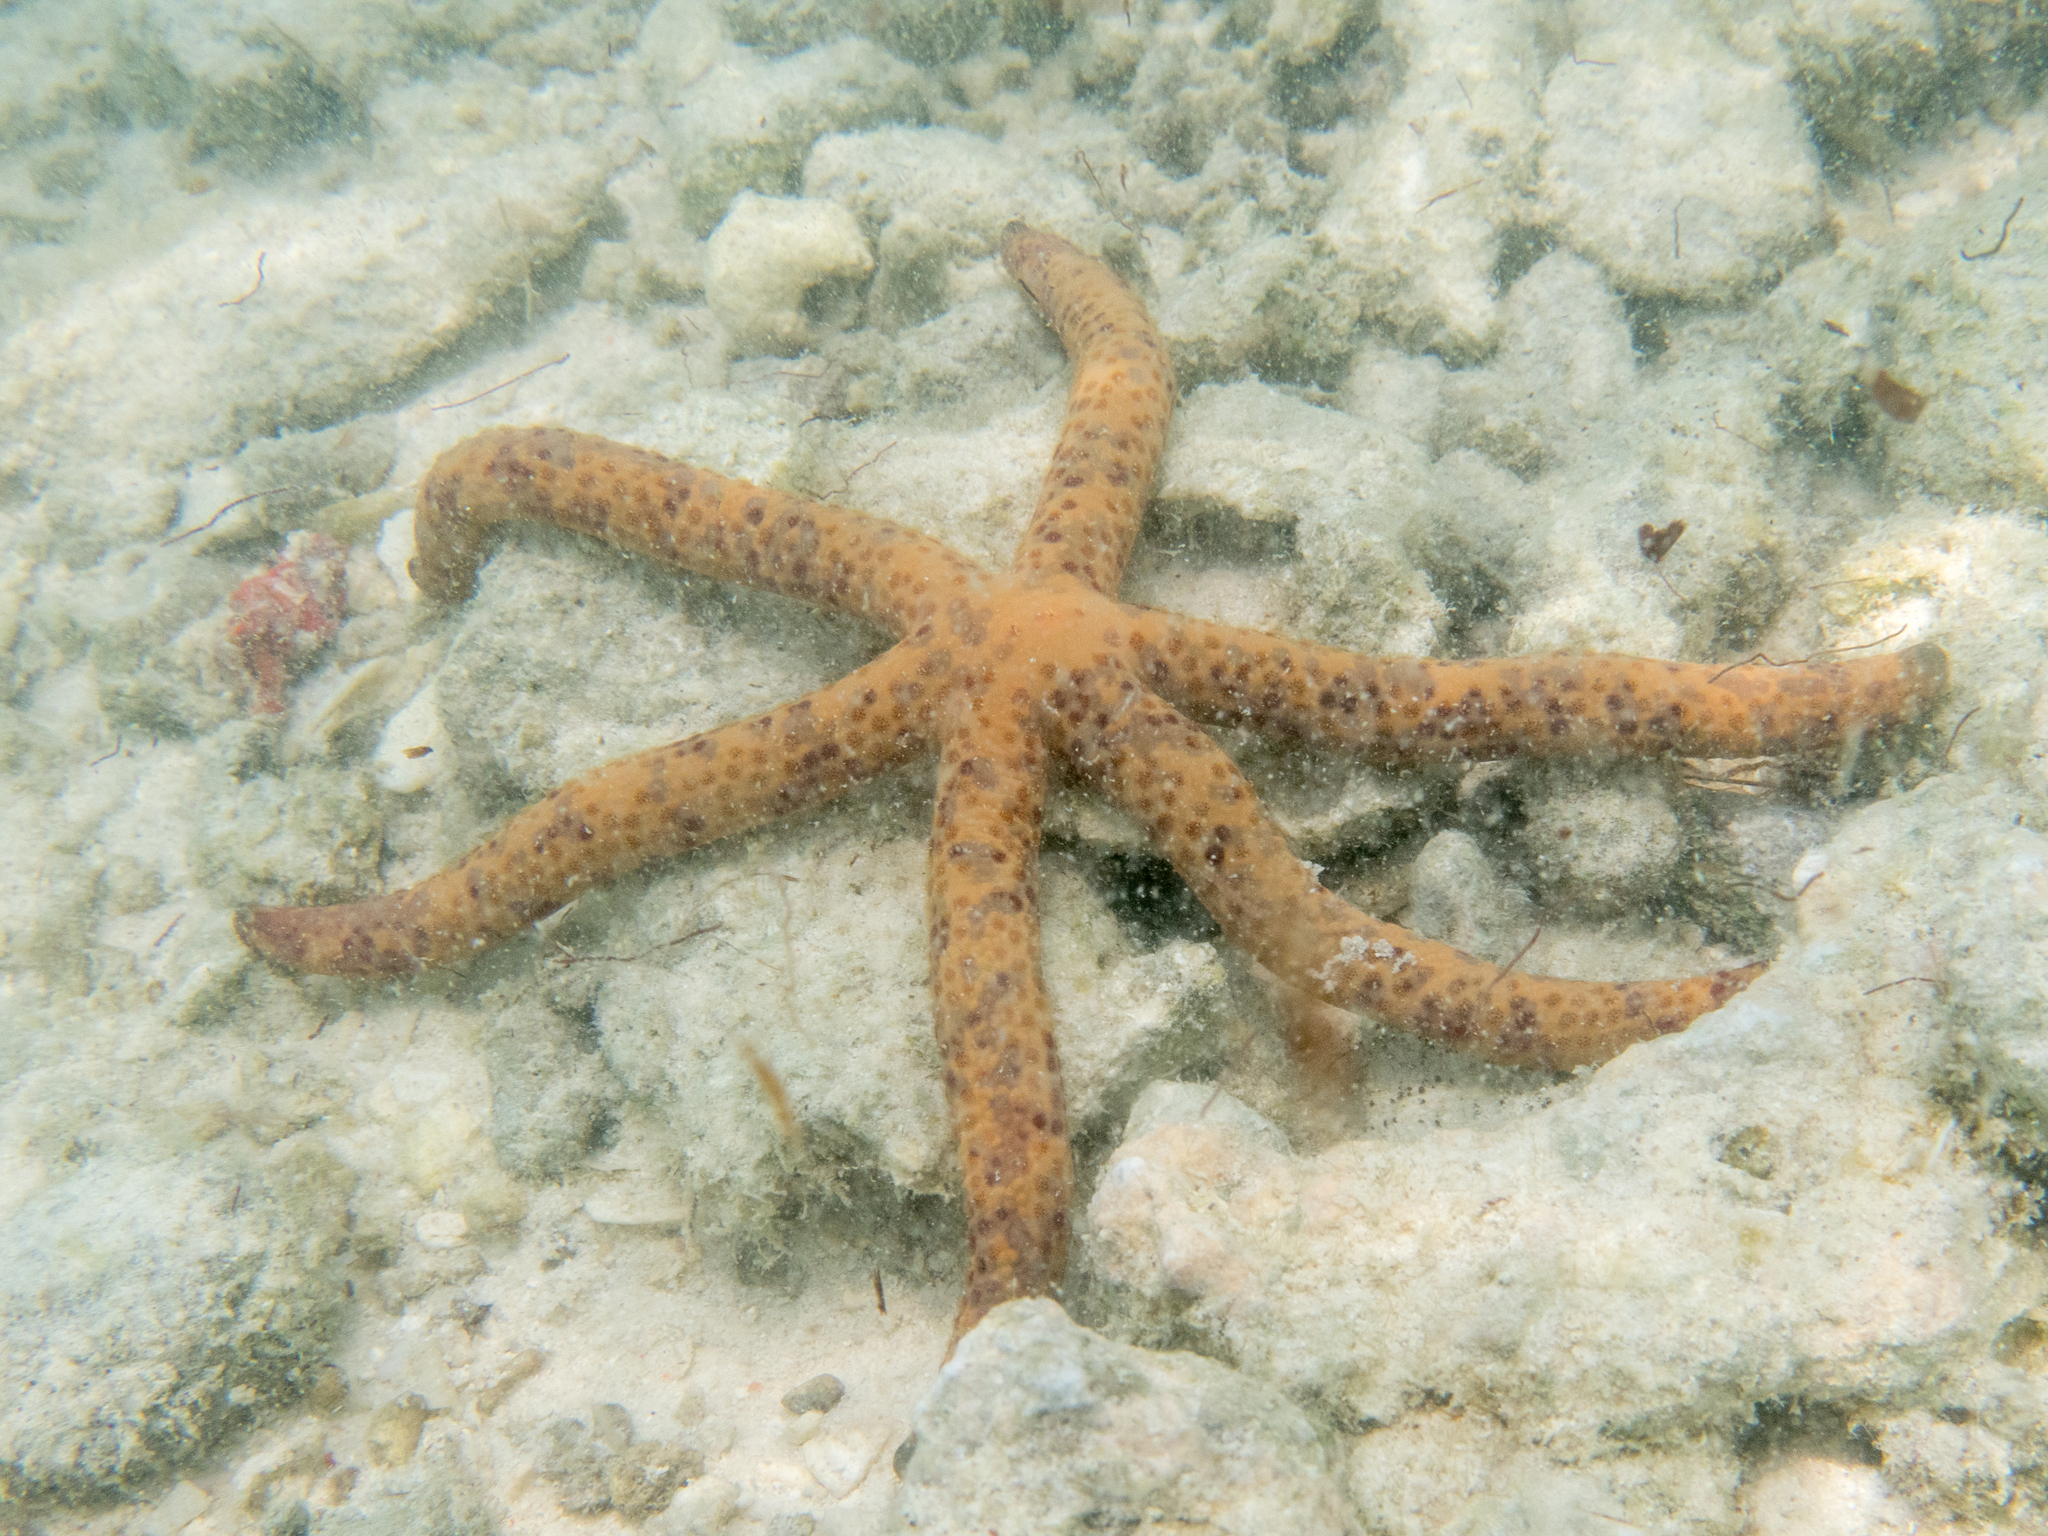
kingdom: Animalia
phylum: Echinodermata
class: Asteroidea
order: Valvatida
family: Ophidiasteridae
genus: Linckia
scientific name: Linckia multifora
